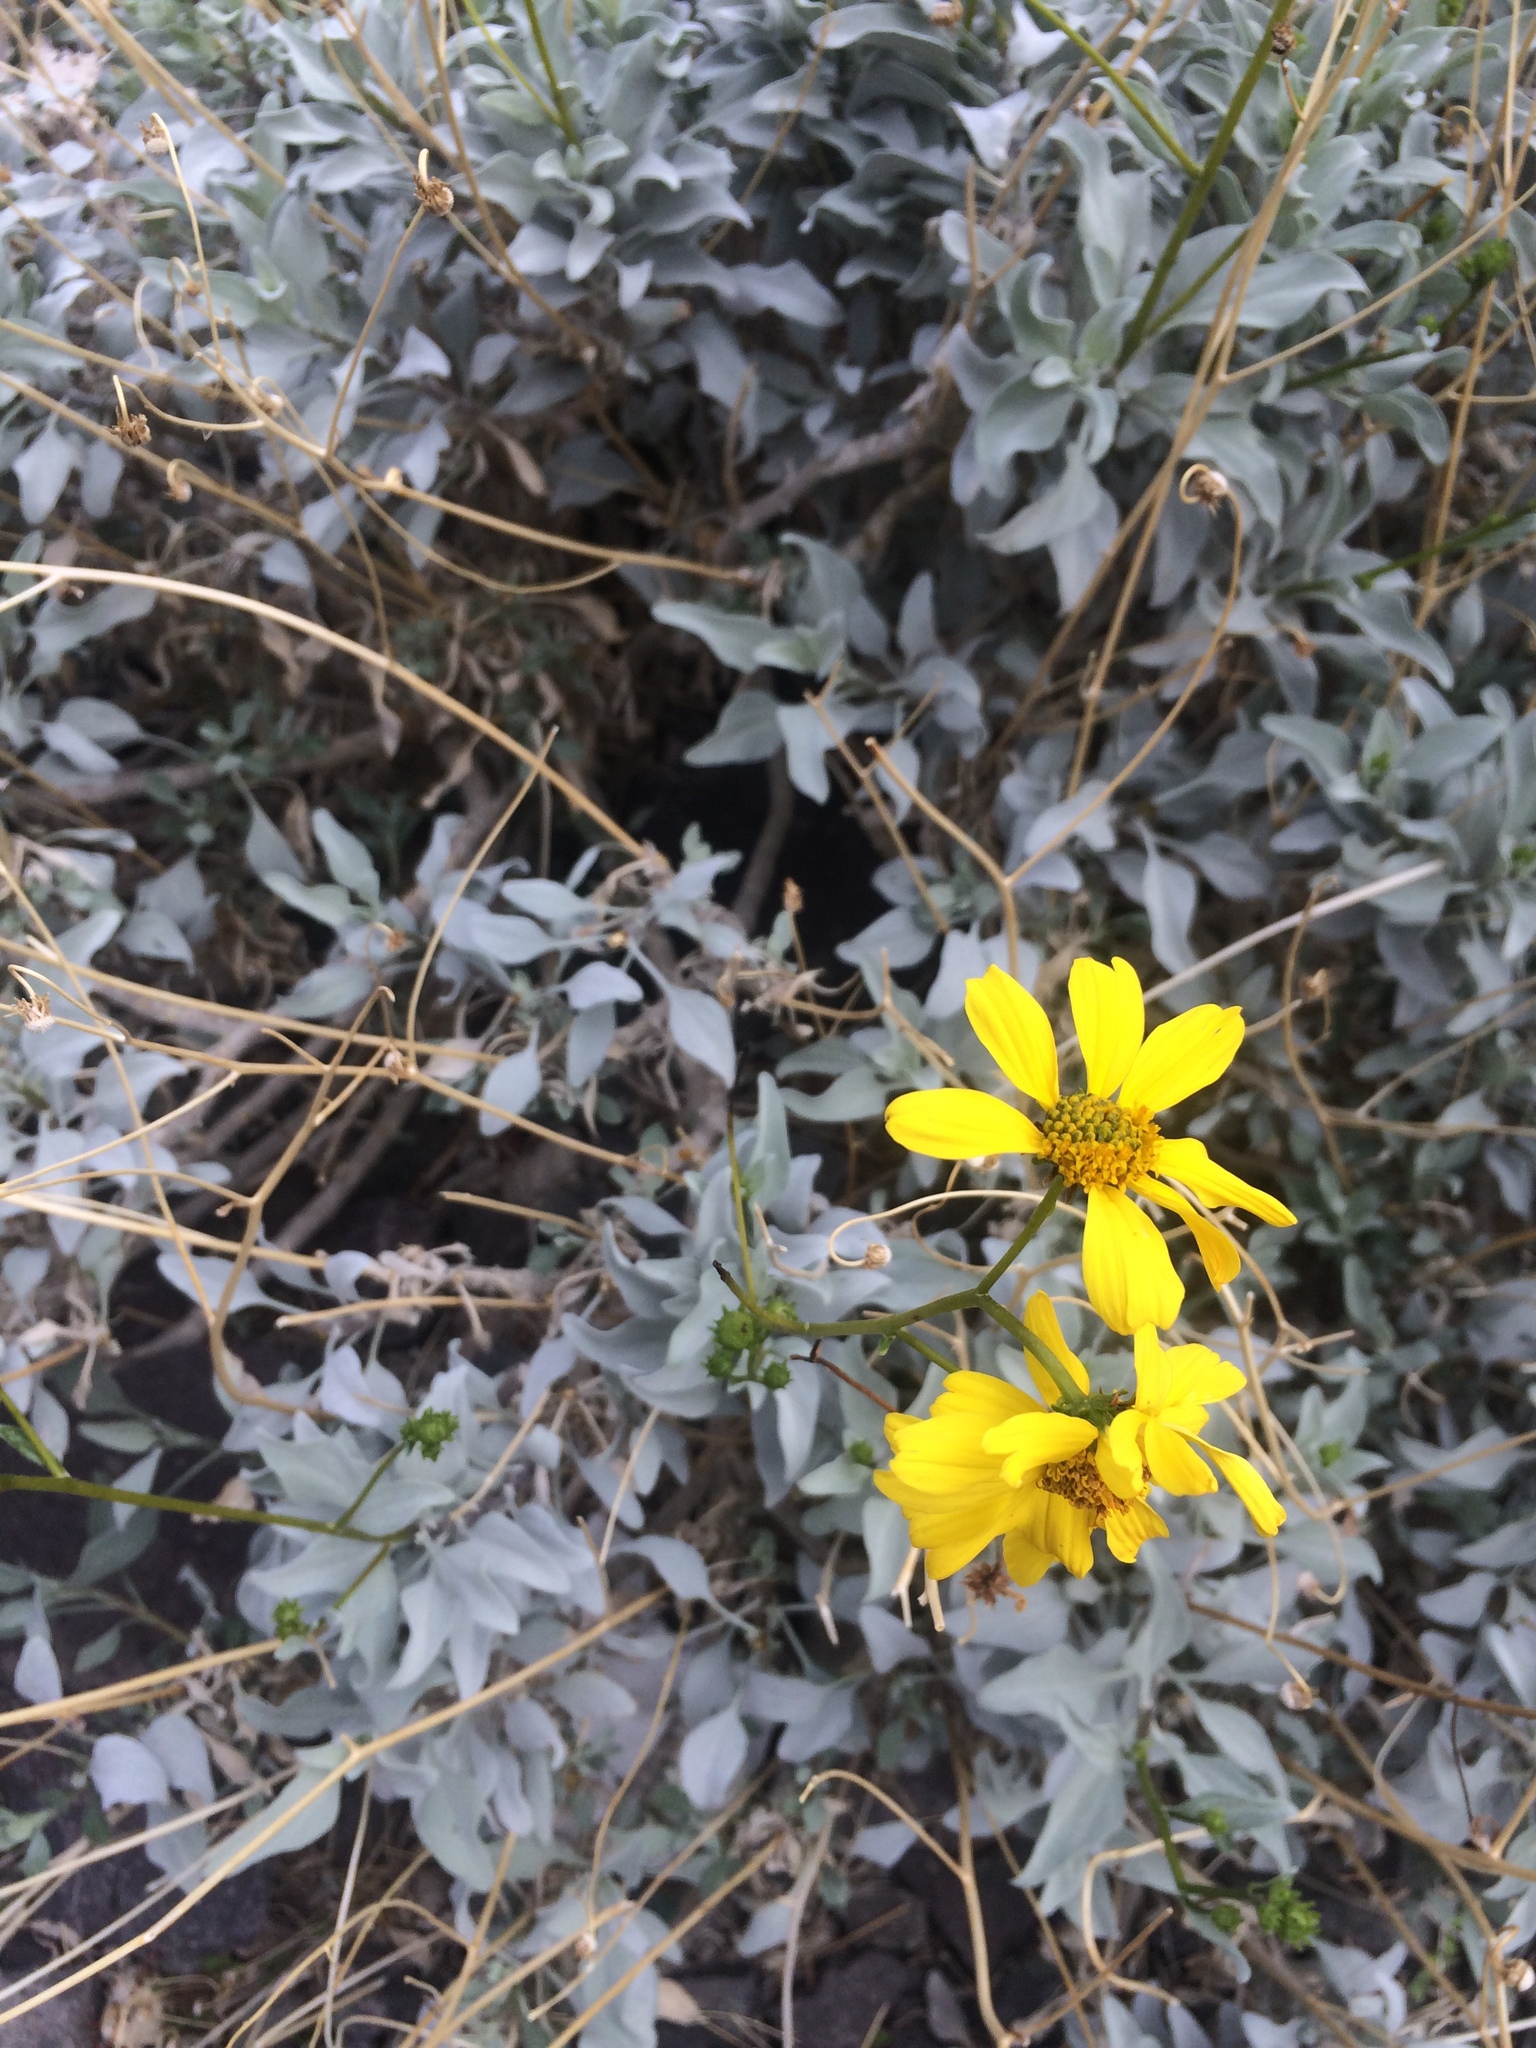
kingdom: Plantae
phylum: Tracheophyta
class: Magnoliopsida
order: Asterales
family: Asteraceae
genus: Encelia
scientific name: Encelia farinosa
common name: Brittlebush
